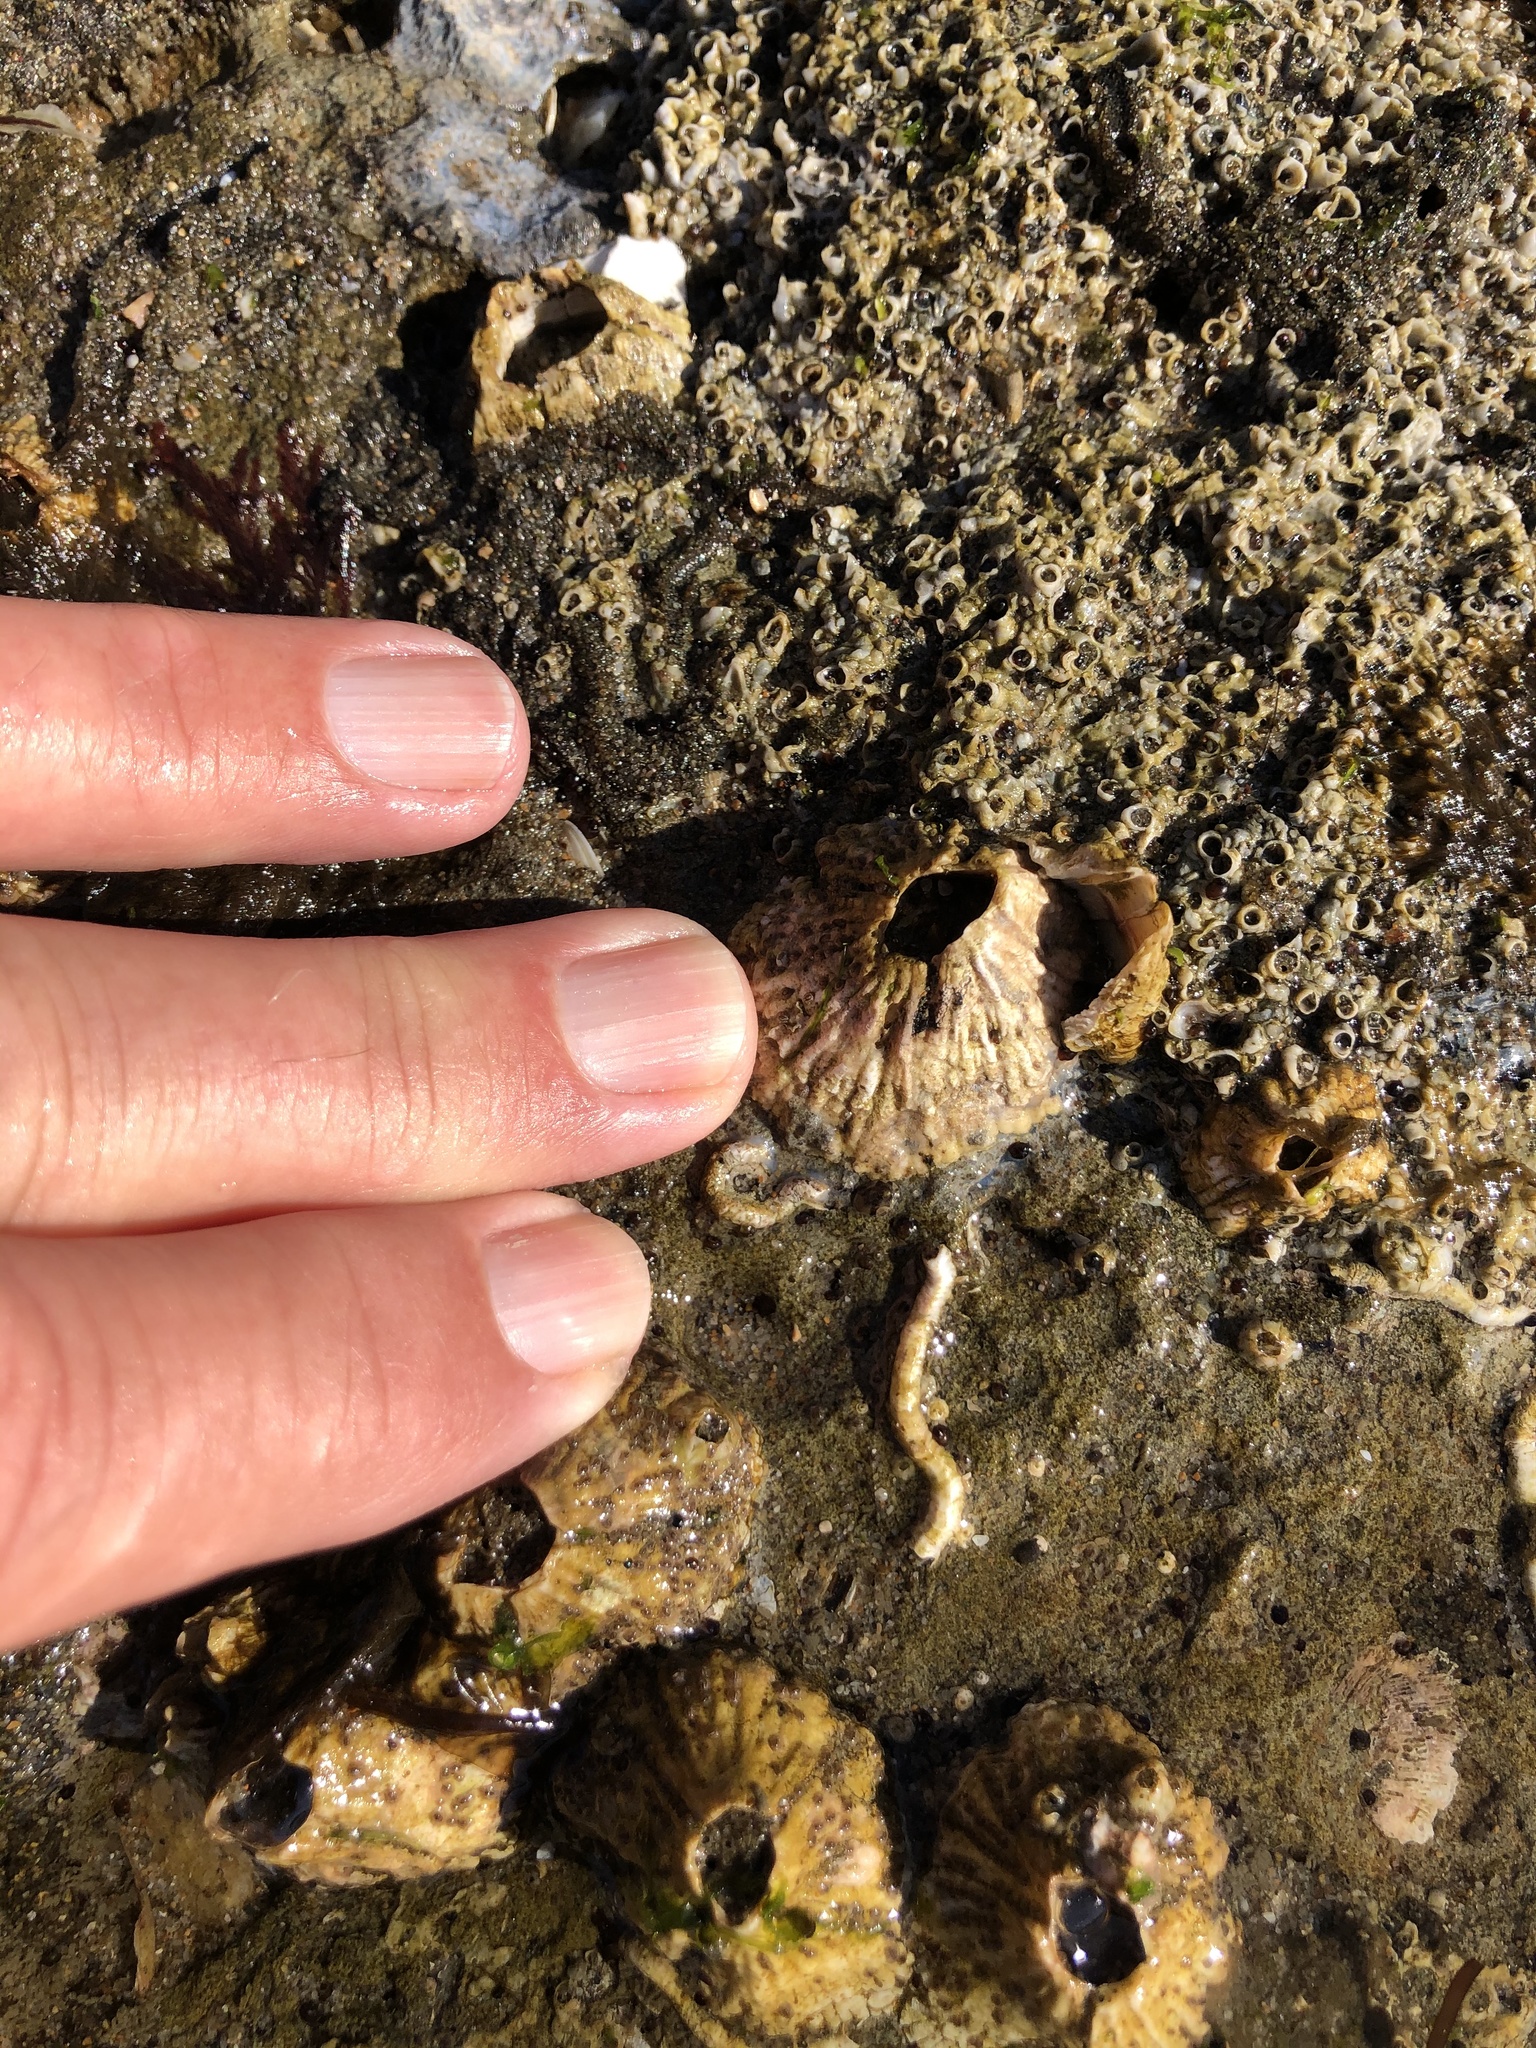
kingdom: Animalia
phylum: Arthropoda
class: Maxillopoda
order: Sessilia
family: Tetraclitidae
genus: Tetraclita
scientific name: Tetraclita rubescens
